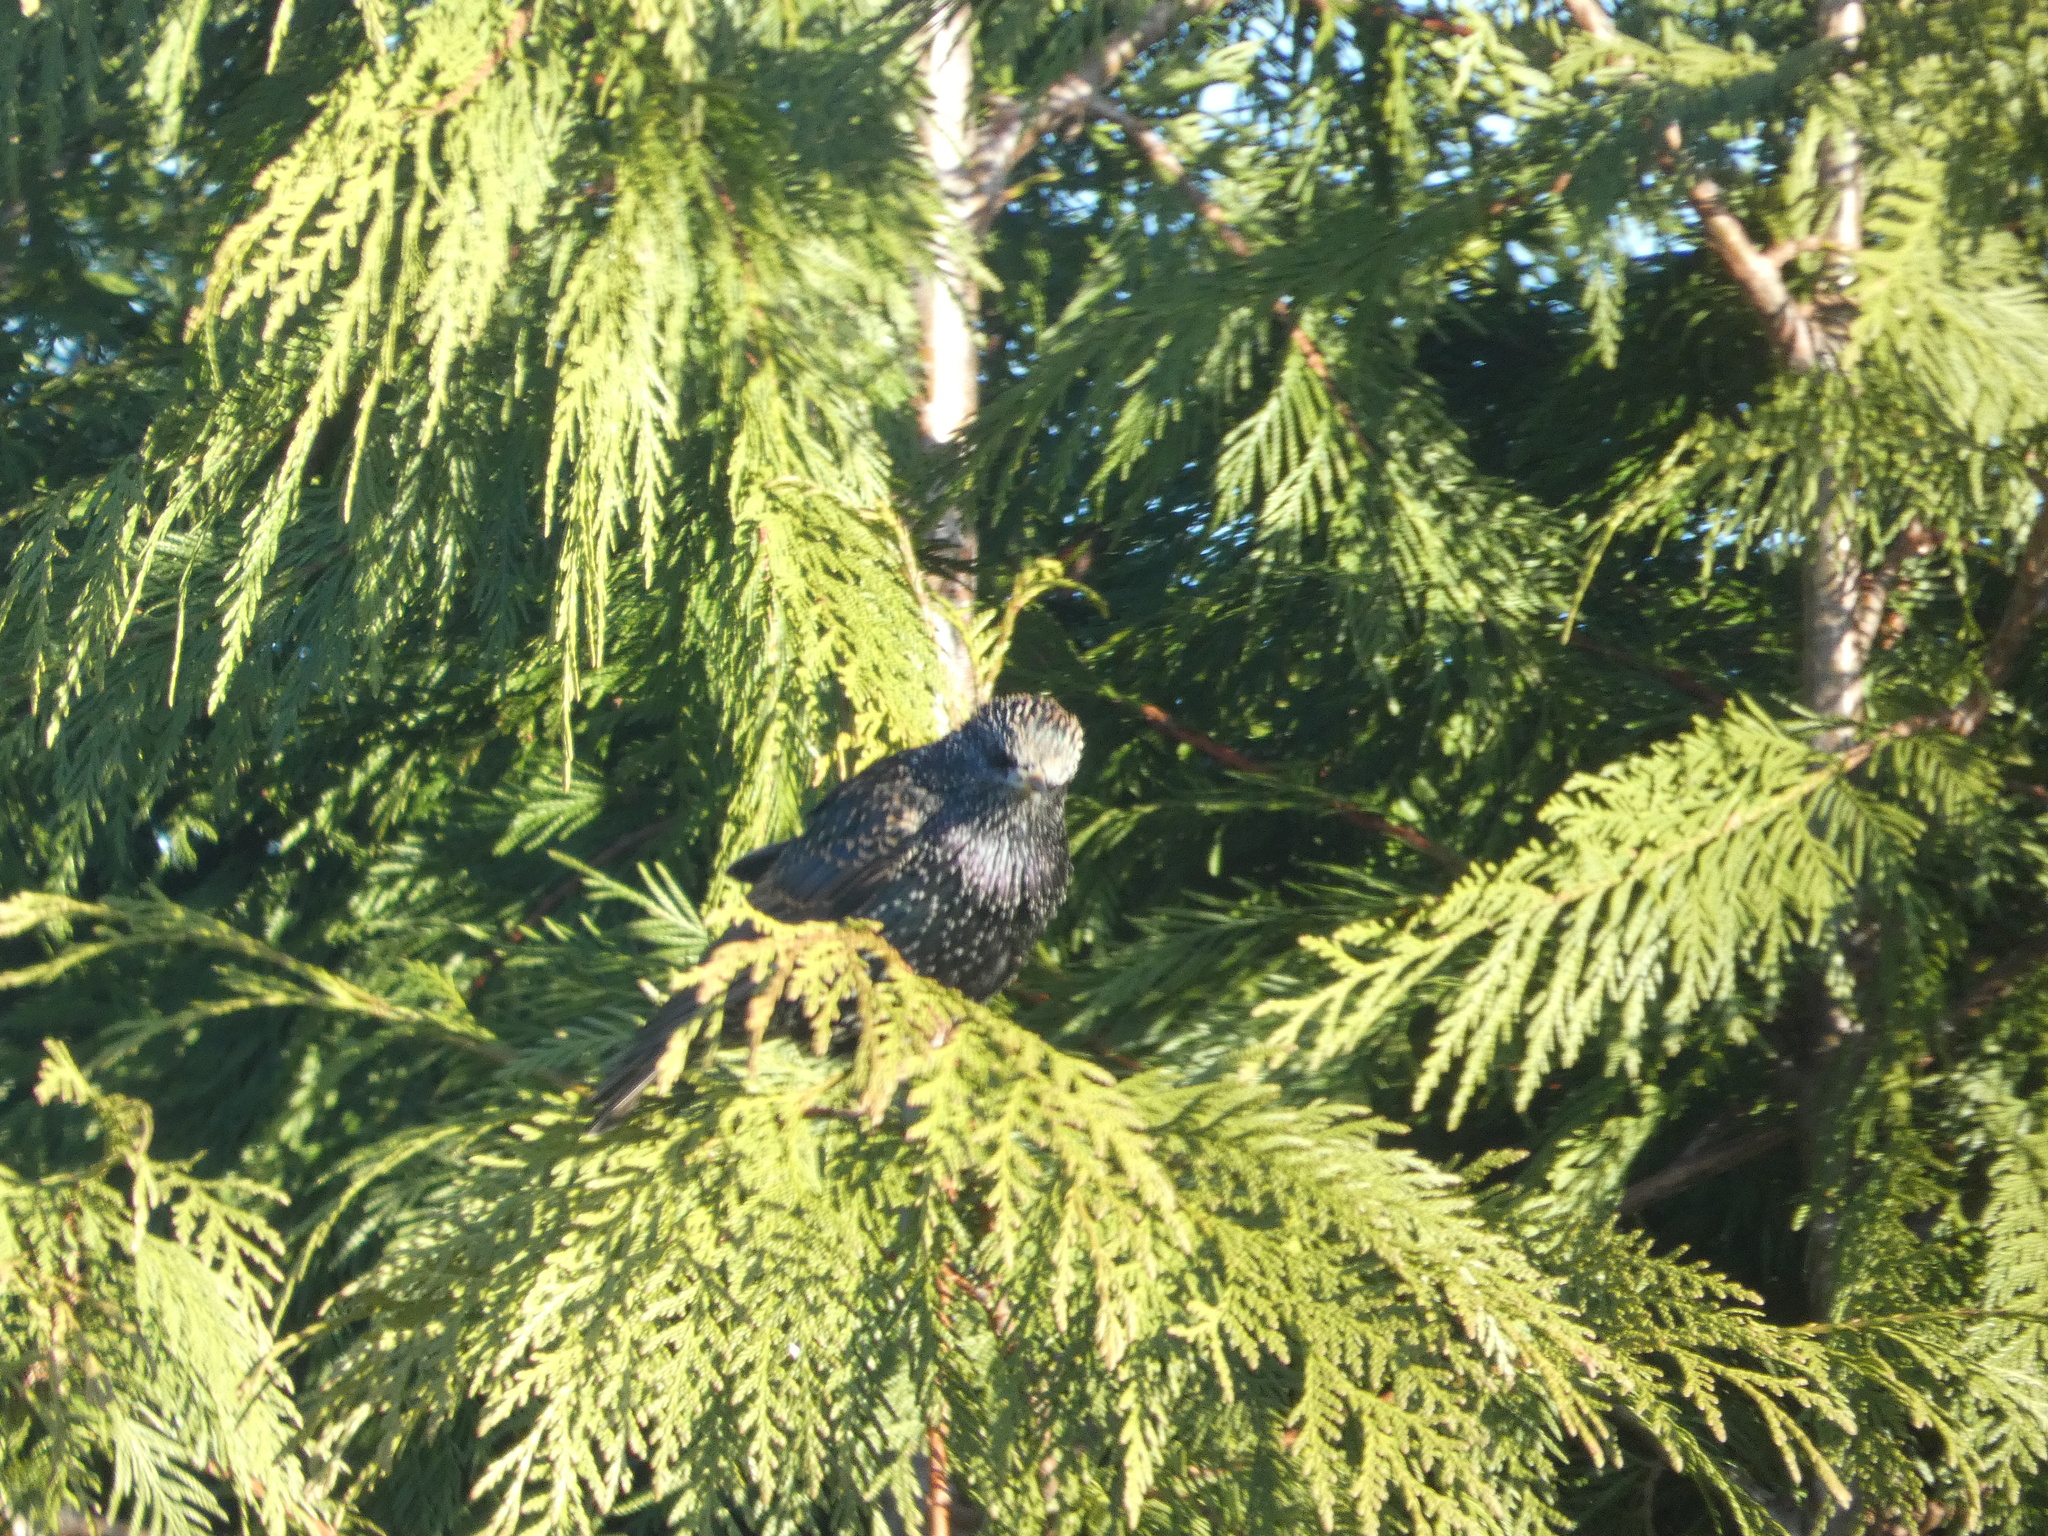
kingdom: Animalia
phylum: Chordata
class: Aves
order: Passeriformes
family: Sturnidae
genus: Sturnus
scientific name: Sturnus vulgaris
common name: Common starling
